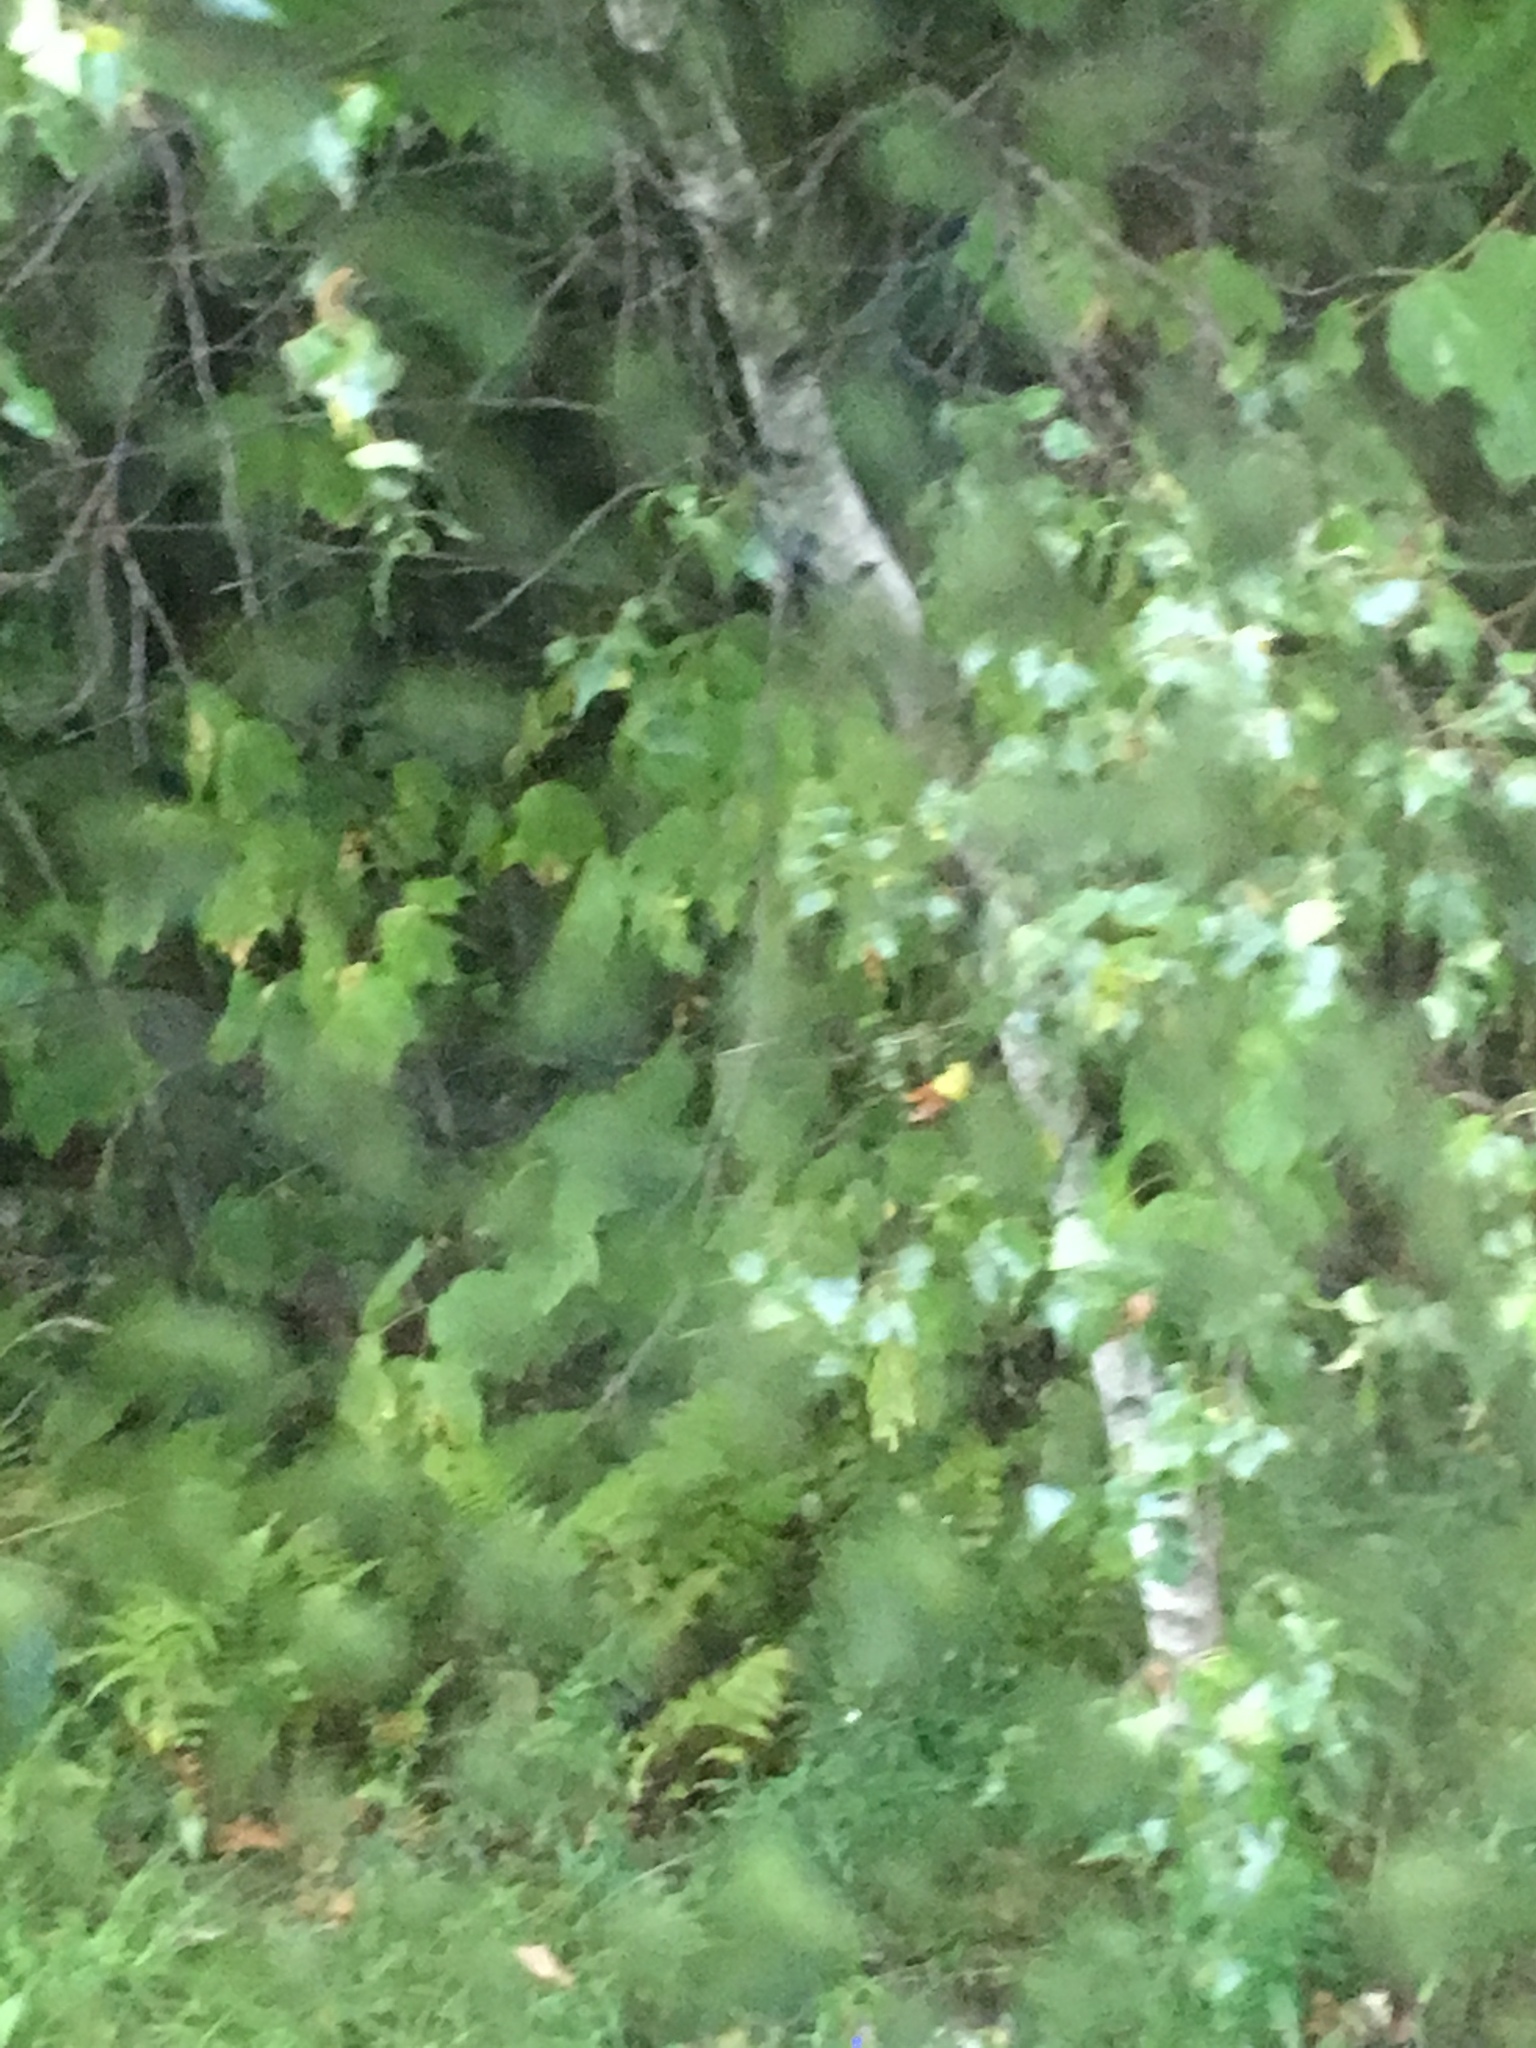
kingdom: Plantae
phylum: Tracheophyta
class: Magnoliopsida
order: Fagales
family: Betulaceae
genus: Betula
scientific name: Betula populifolia
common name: Fire birch
